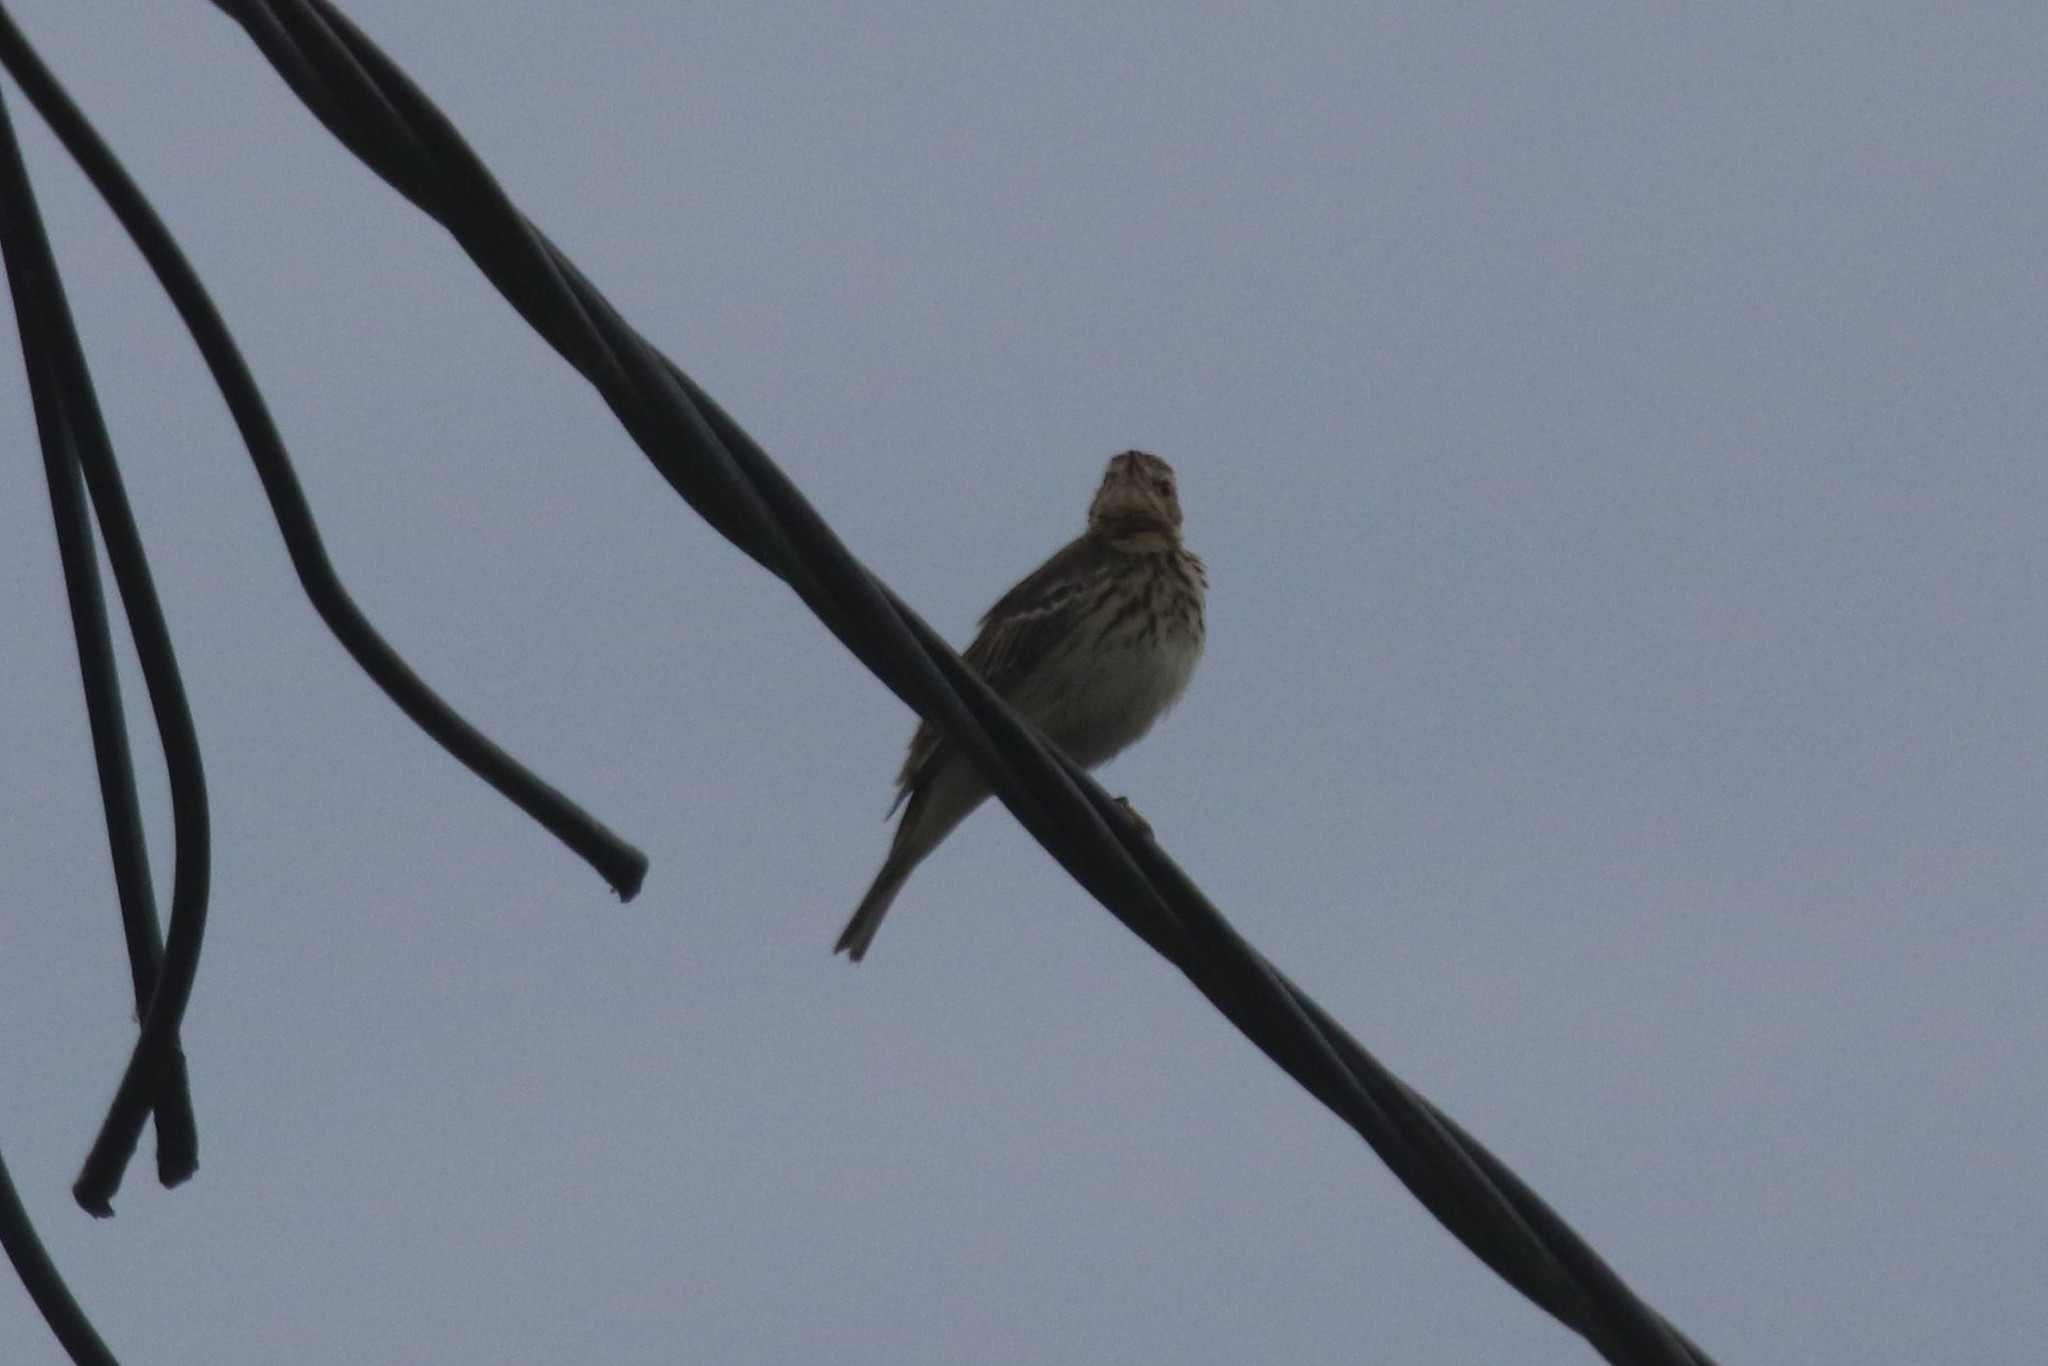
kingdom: Animalia
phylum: Chordata
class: Aves
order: Passeriformes
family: Motacillidae
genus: Anthus
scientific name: Anthus trivialis
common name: Tree pipit
